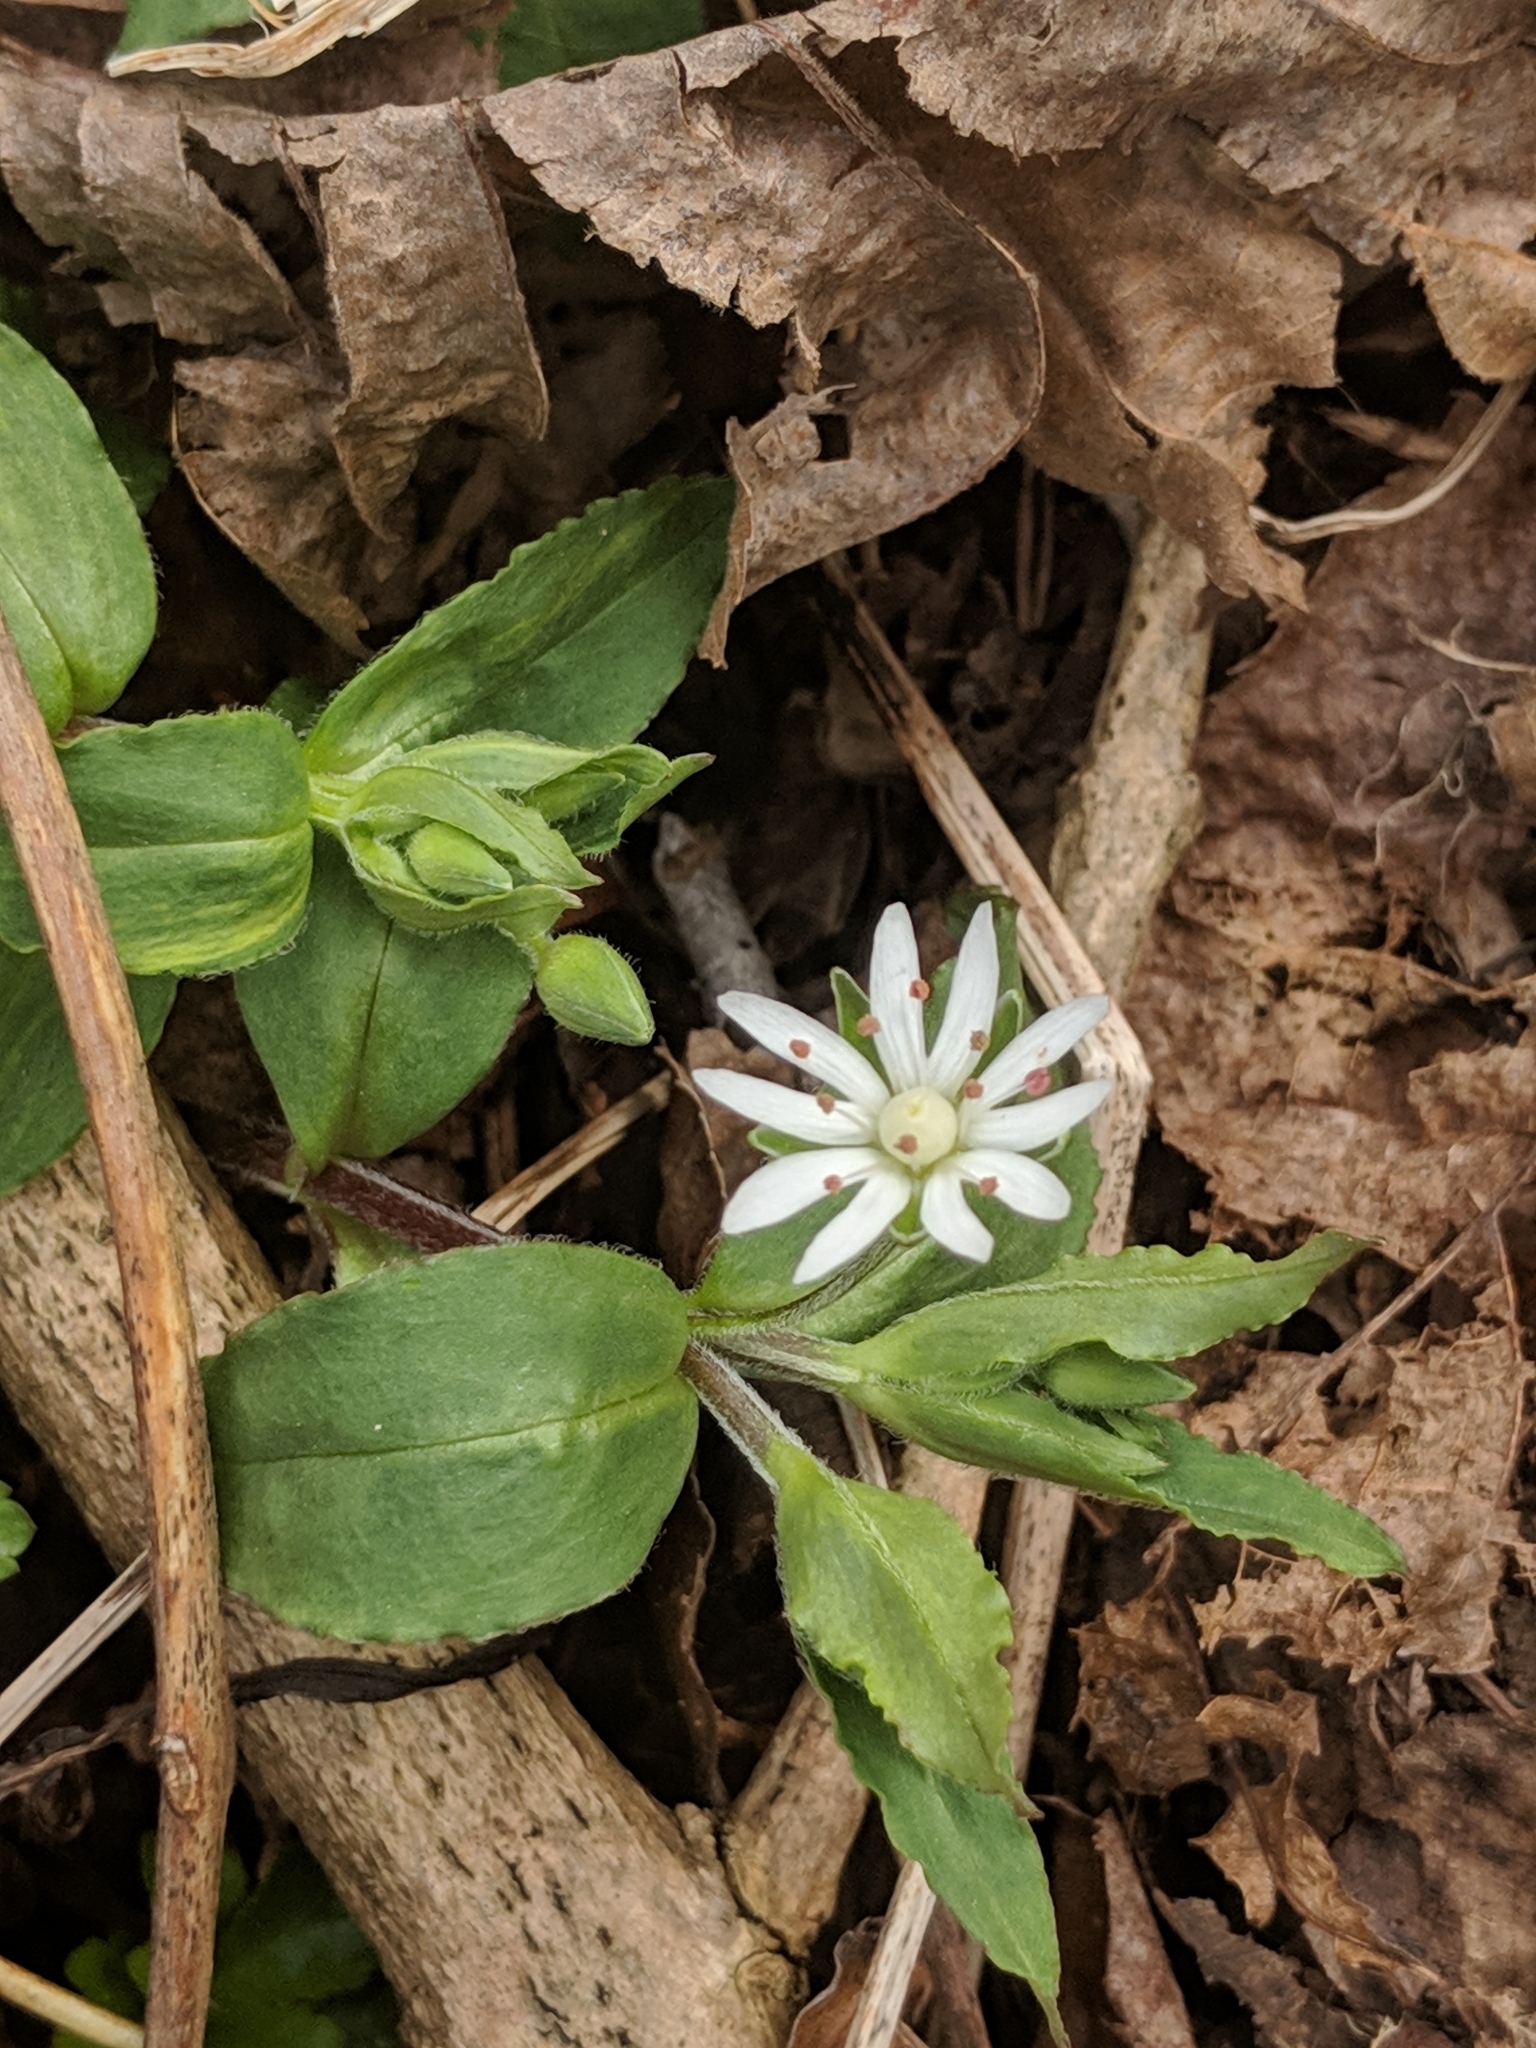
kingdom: Plantae
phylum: Tracheophyta
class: Magnoliopsida
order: Caryophyllales
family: Caryophyllaceae
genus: Stellaria
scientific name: Stellaria pubera
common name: Star chickweed
